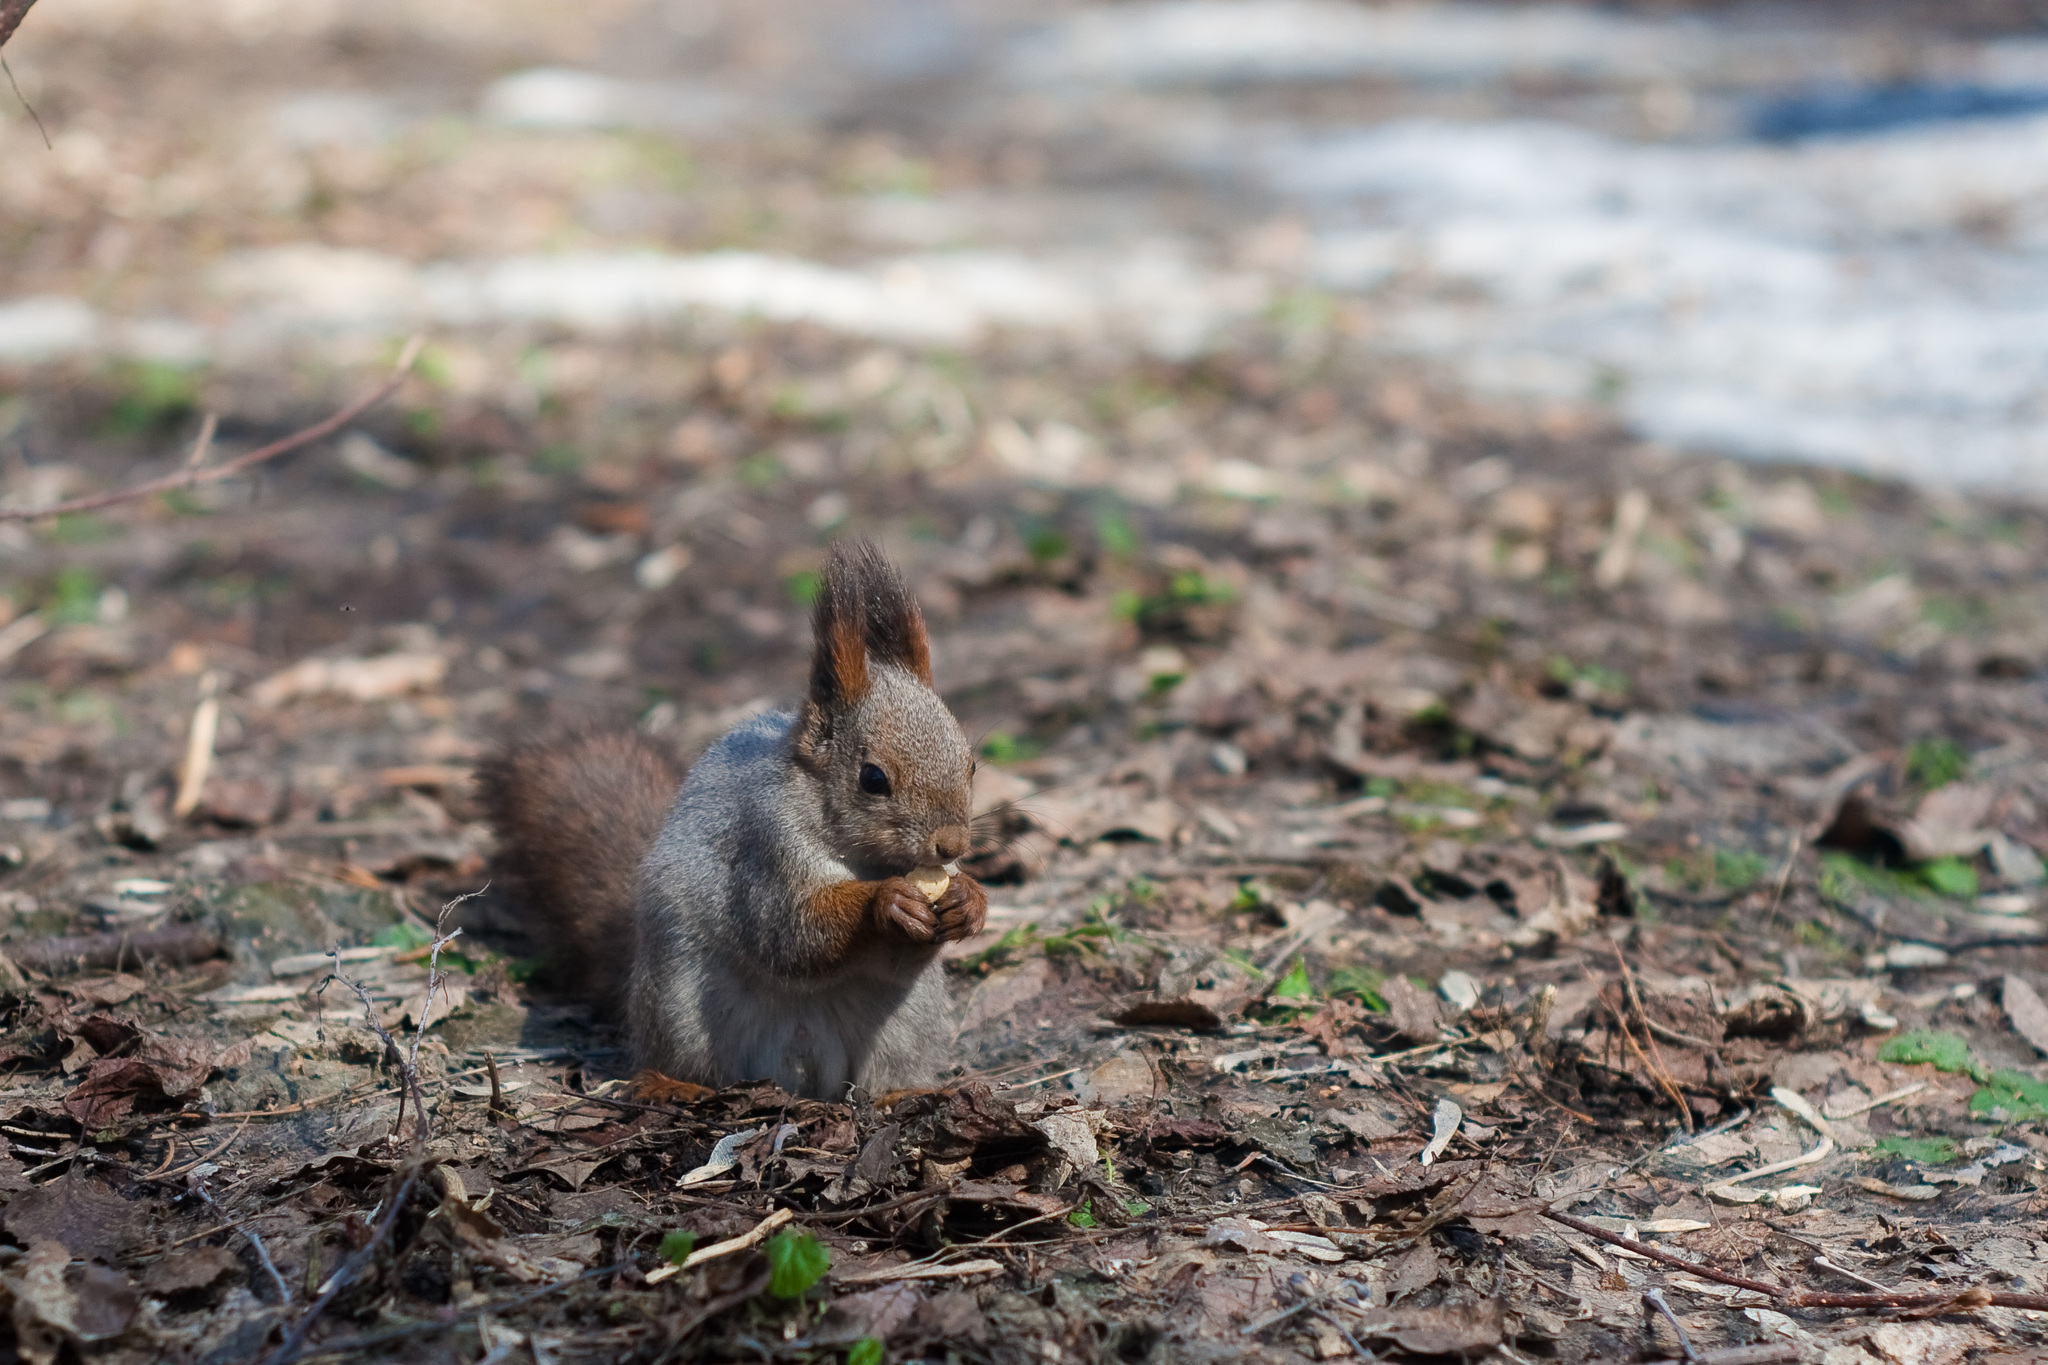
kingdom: Animalia
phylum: Chordata
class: Mammalia
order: Rodentia
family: Sciuridae
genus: Sciurus
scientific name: Sciurus vulgaris
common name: Eurasian red squirrel
